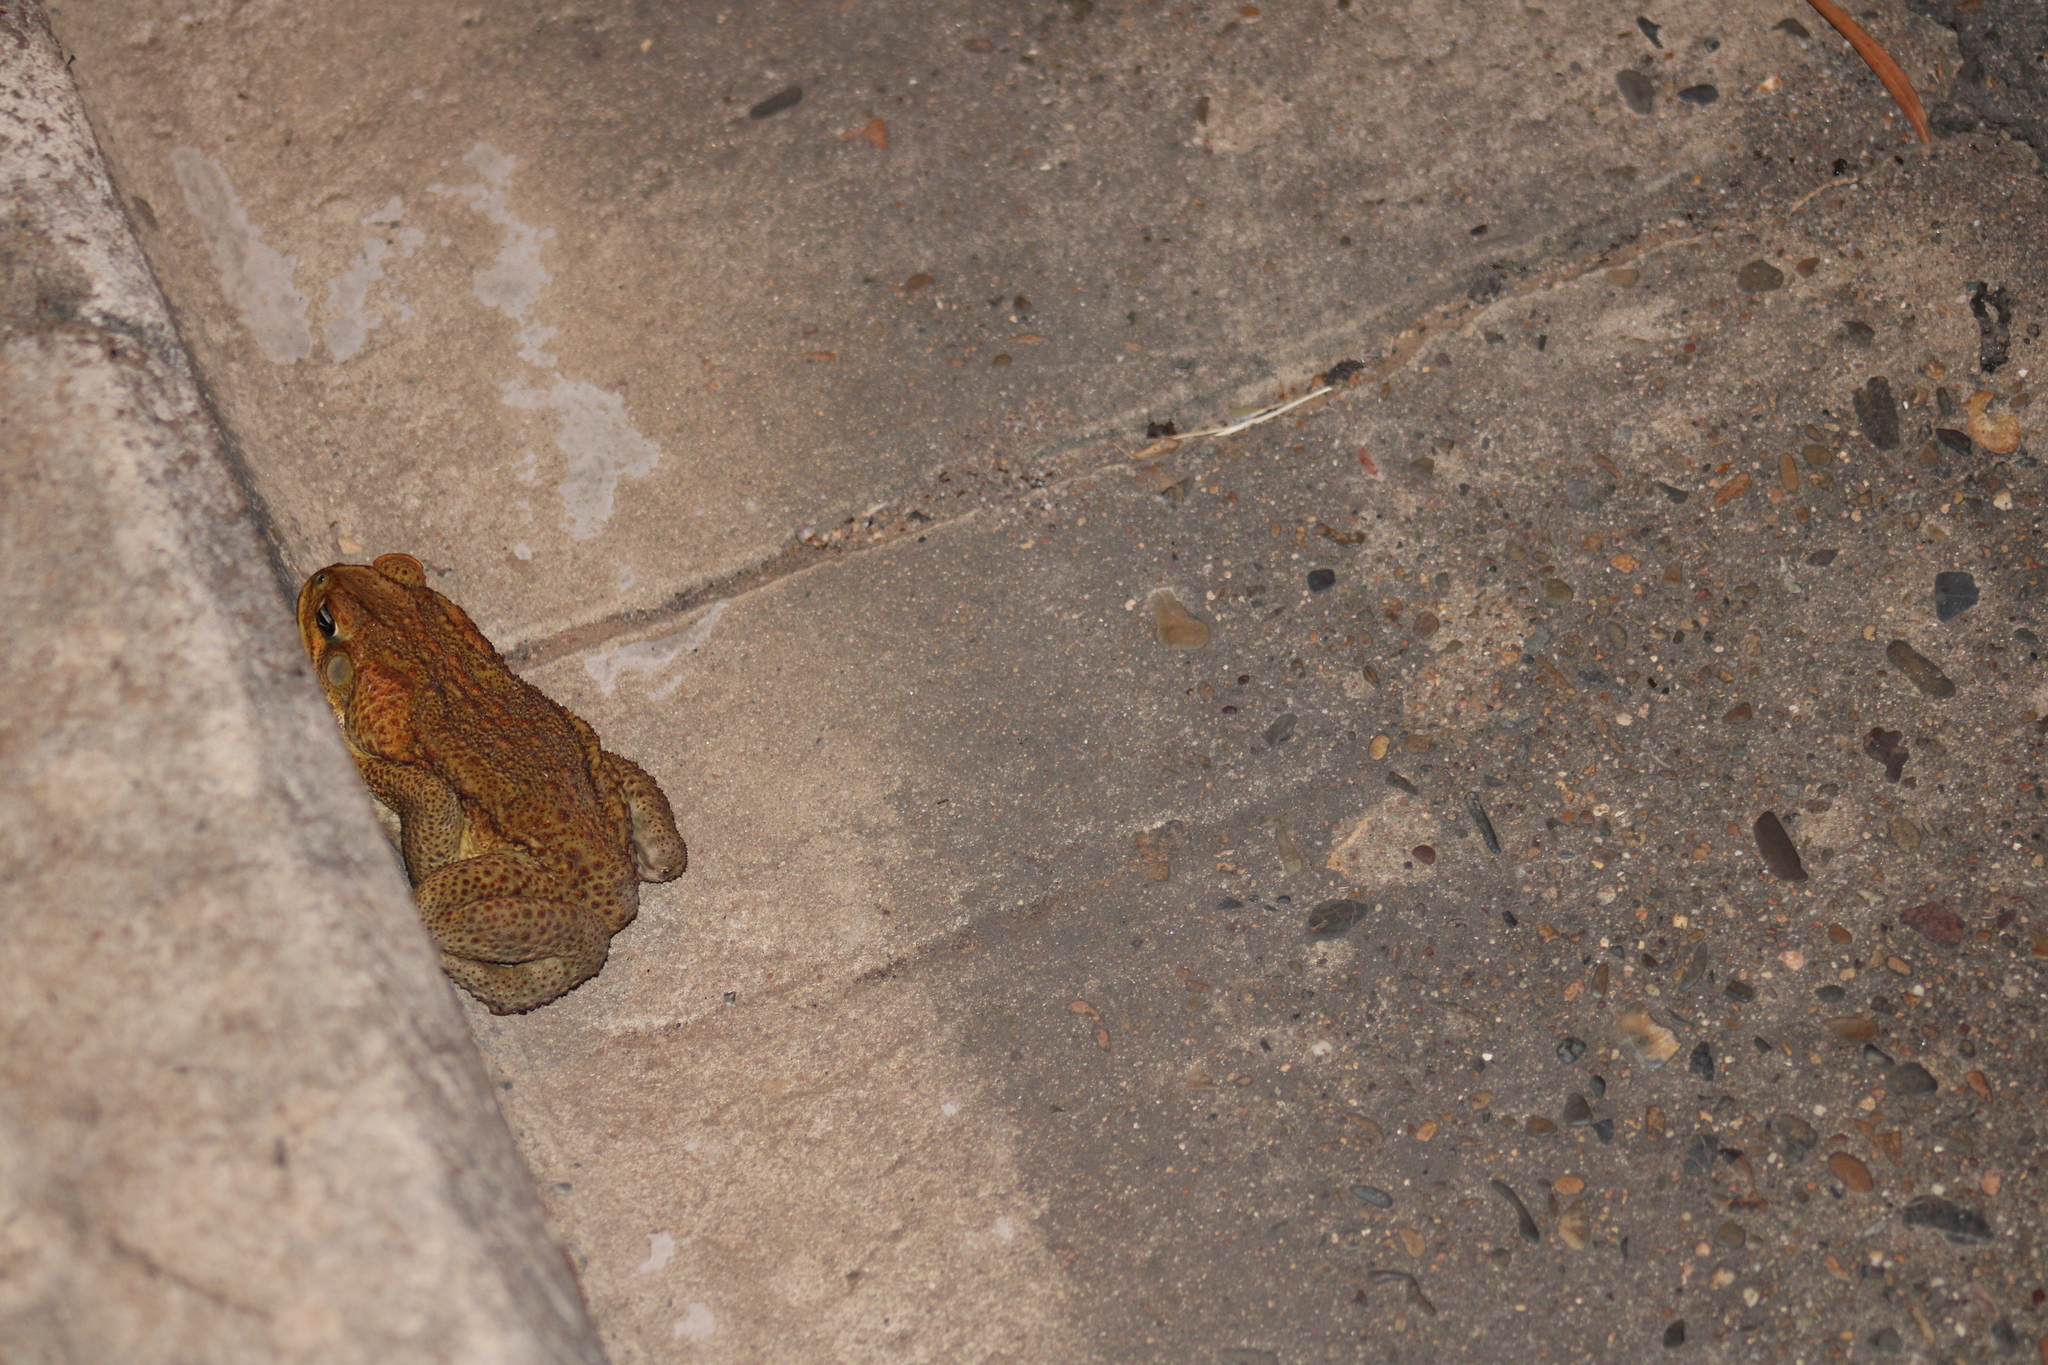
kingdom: Animalia
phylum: Chordata
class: Amphibia
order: Anura
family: Bufonidae
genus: Rhinella
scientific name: Rhinella marina
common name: Cane toad
